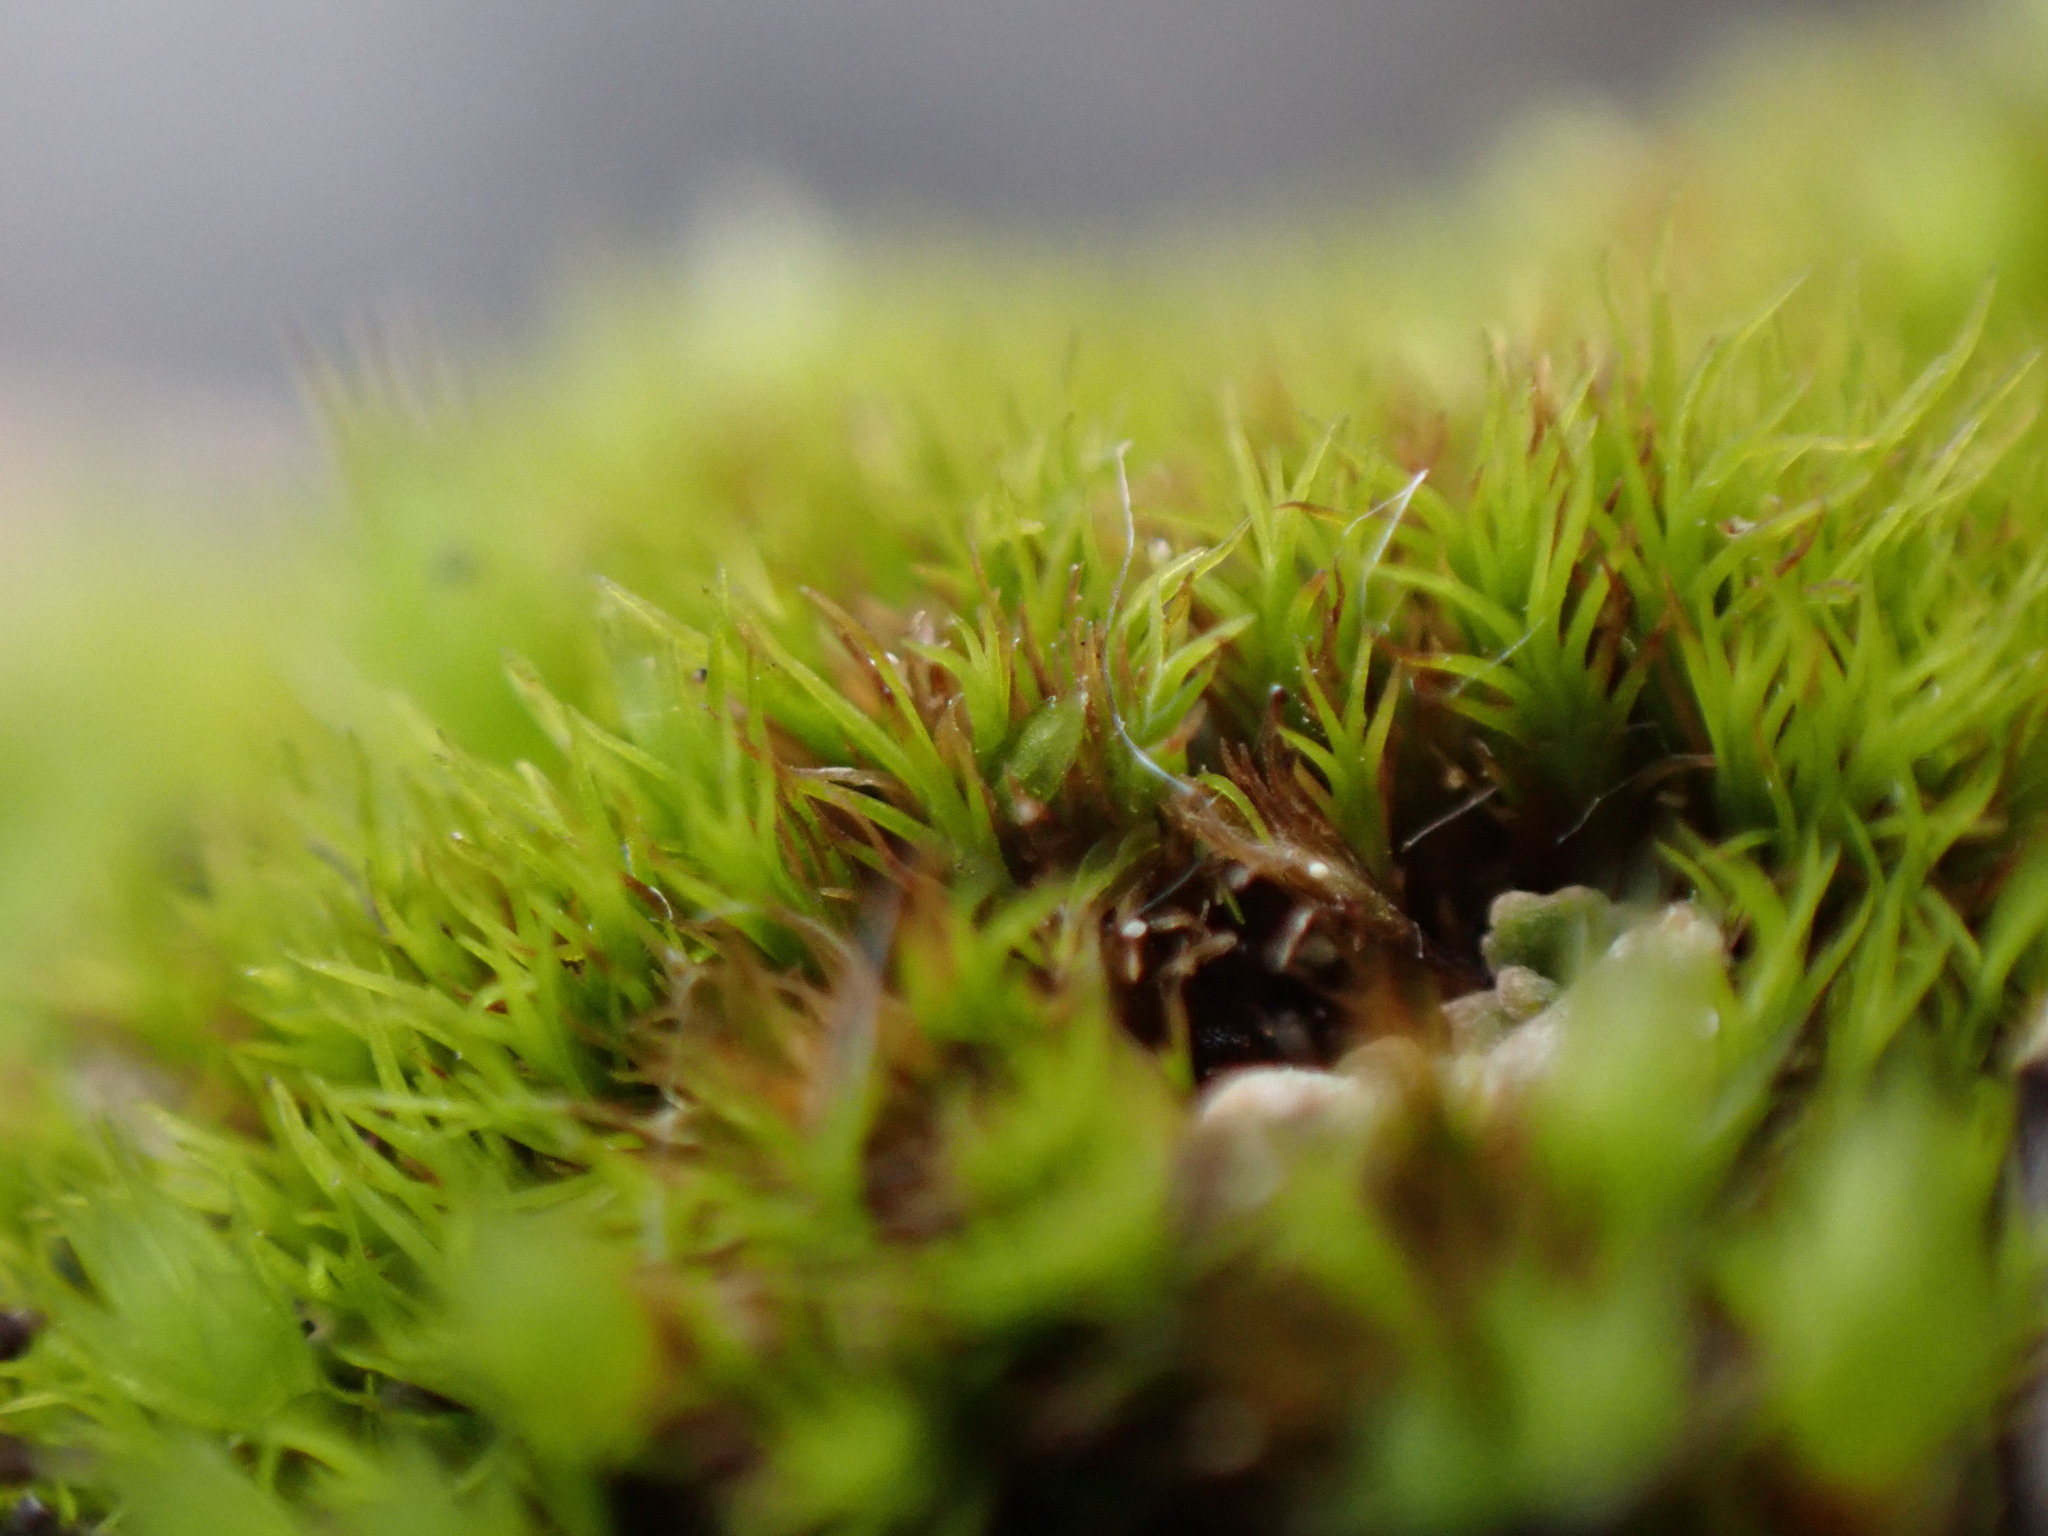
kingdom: Plantae
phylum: Bryophyta
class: Bryopsida
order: Scouleriales
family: Distichiaceae
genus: Distichium
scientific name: Distichium capillaceum
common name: Erect-fruited iris moss
